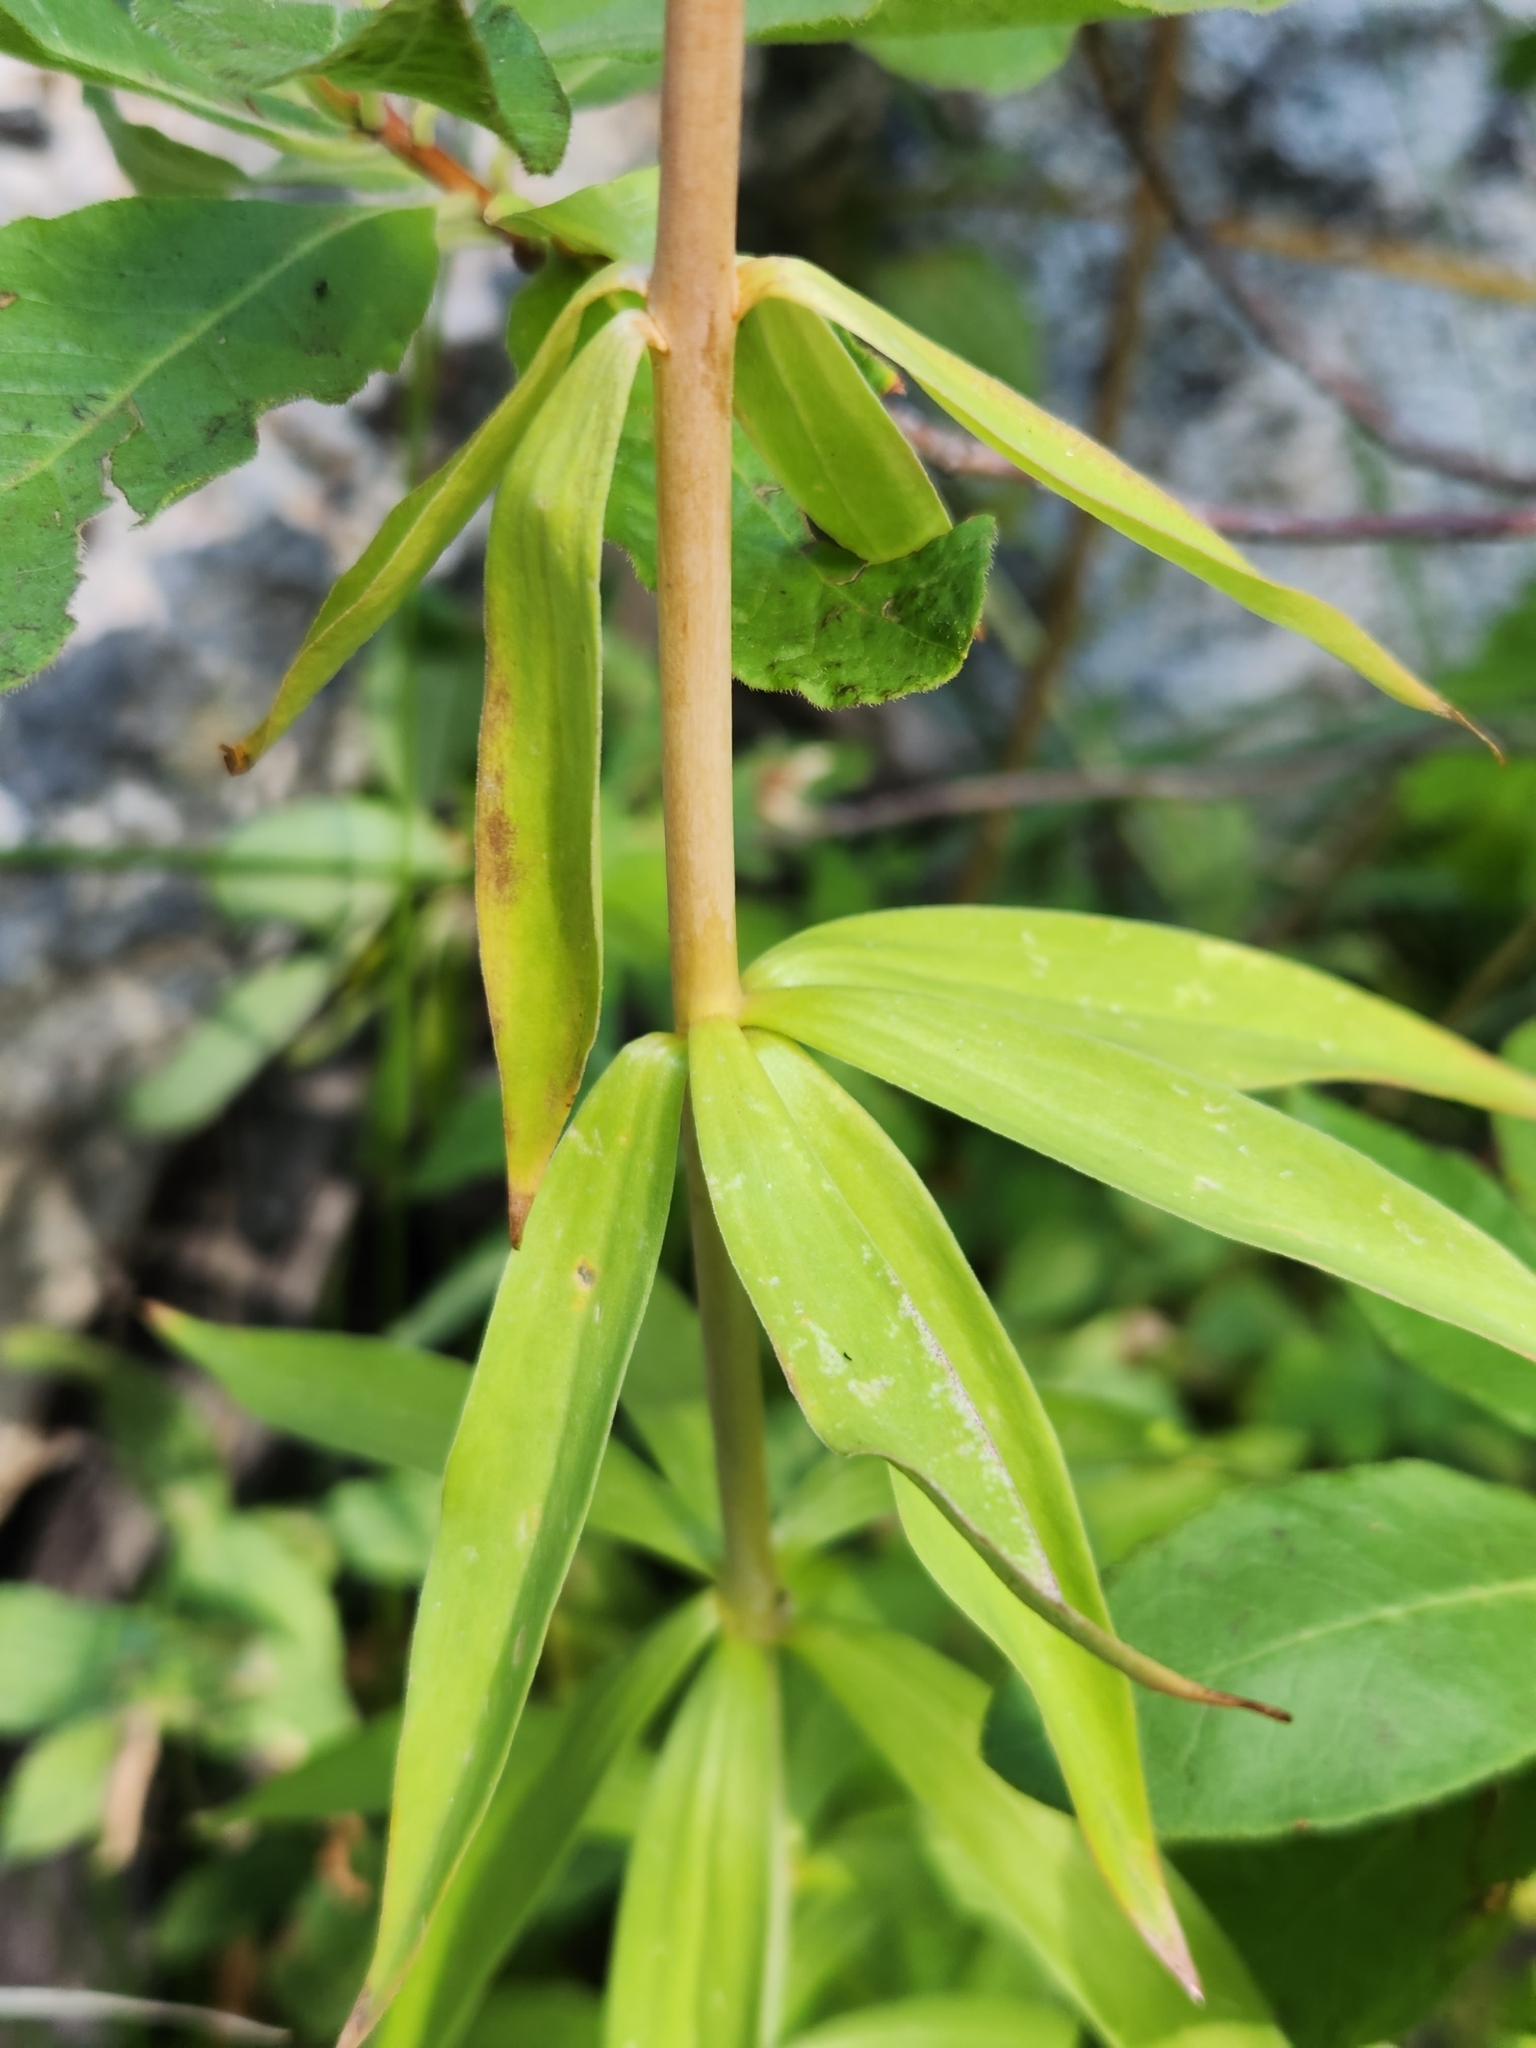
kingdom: Plantae
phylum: Tracheophyta
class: Liliopsida
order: Liliales
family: Liliaceae
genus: Lilium
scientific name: Lilium parryi
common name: Lemon lily
